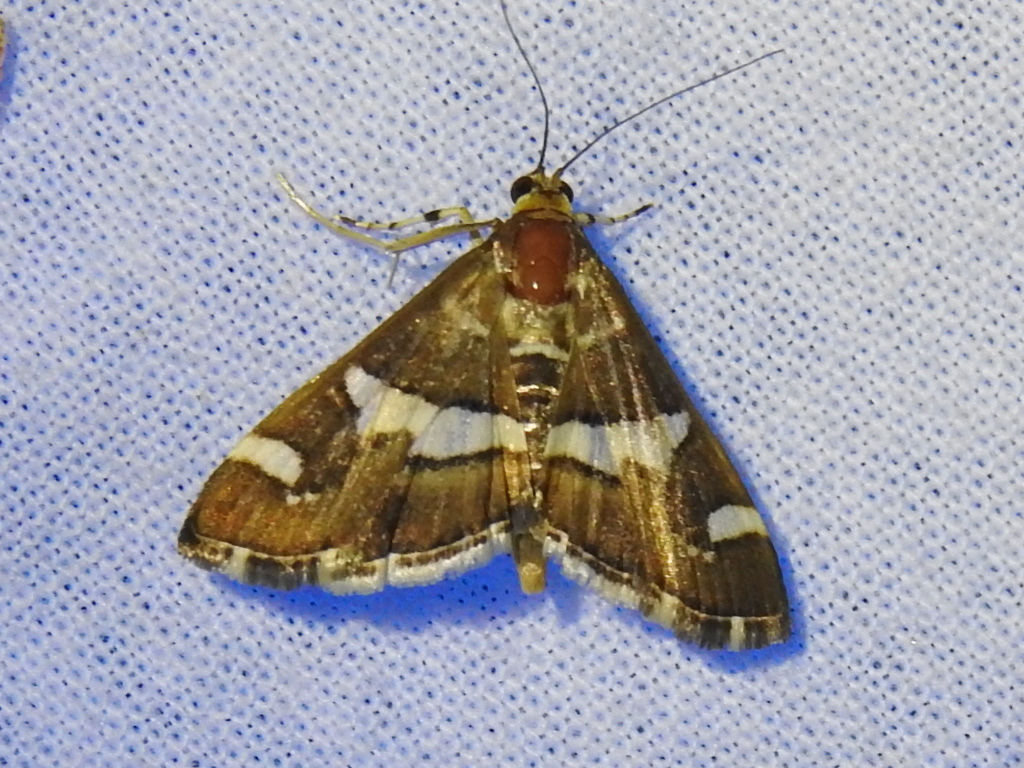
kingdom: Animalia
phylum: Arthropoda
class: Insecta
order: Lepidoptera
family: Crambidae
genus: Spoladea
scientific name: Spoladea recurvalis
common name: Beet webworm moth
